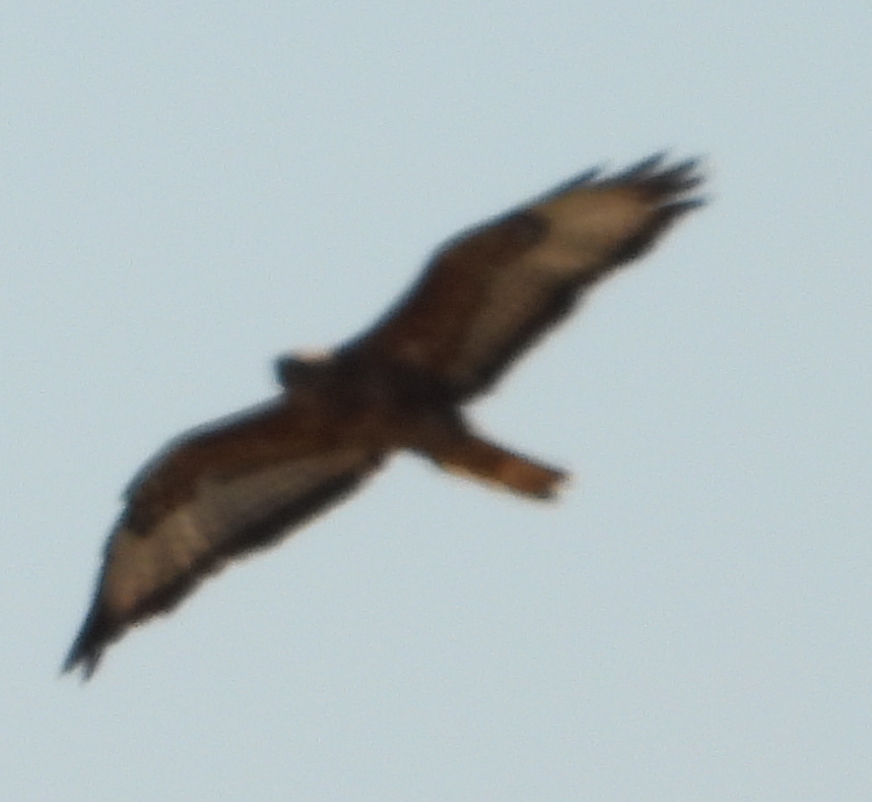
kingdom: Animalia
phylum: Chordata
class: Aves
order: Accipitriformes
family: Accipitridae
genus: Buteo
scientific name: Buteo buteo
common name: Common buzzard
